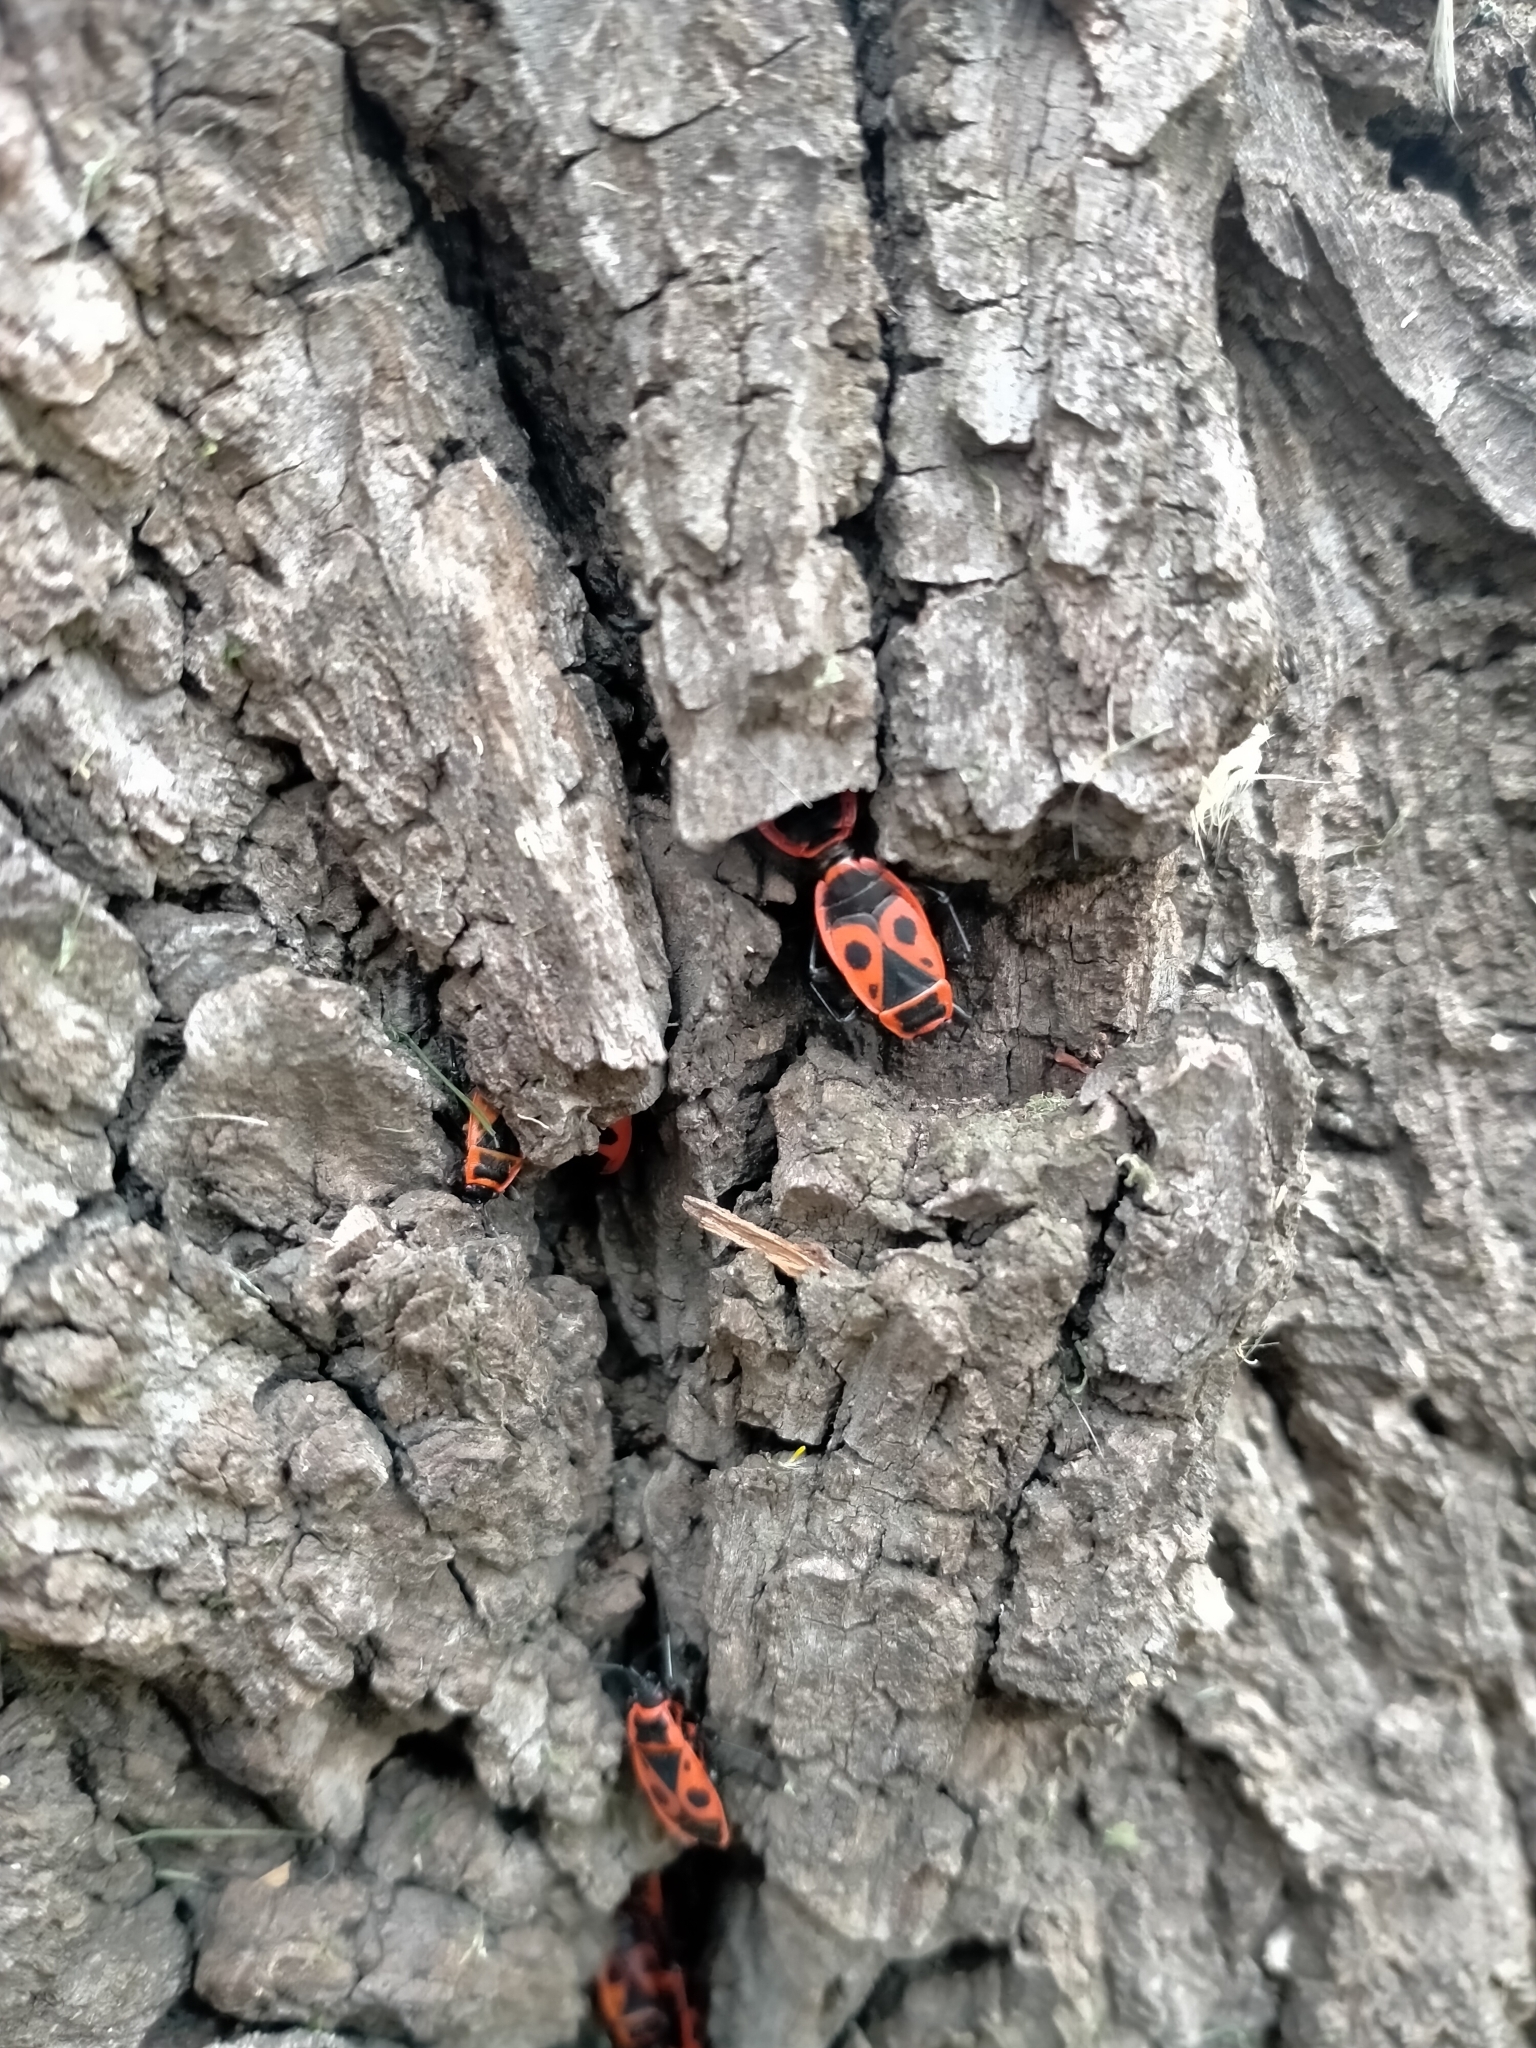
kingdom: Animalia
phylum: Arthropoda
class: Insecta
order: Hemiptera
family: Pyrrhocoridae
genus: Pyrrhocoris
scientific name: Pyrrhocoris apterus
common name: Firebug
